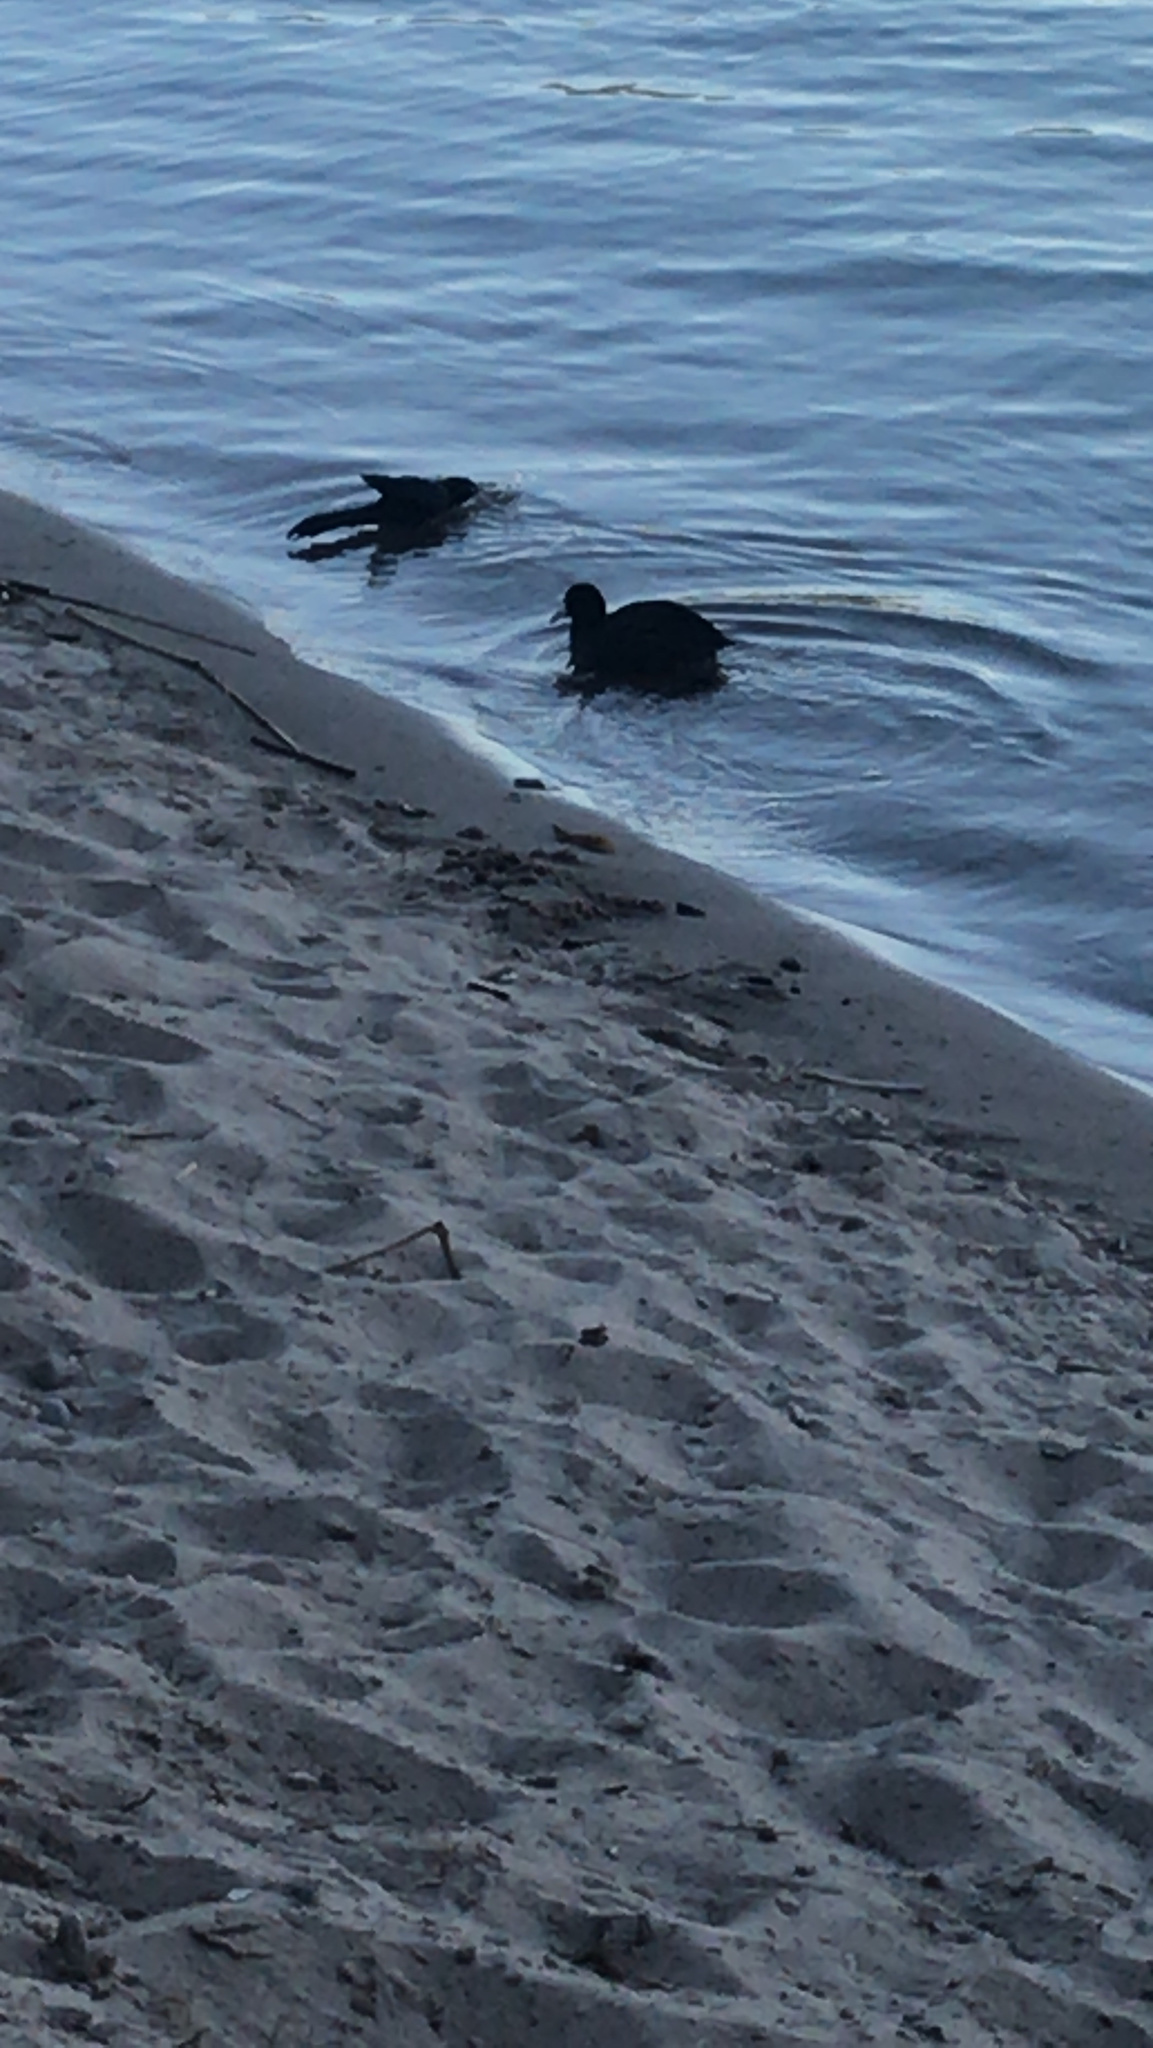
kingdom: Animalia
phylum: Chordata
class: Aves
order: Gruiformes
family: Rallidae
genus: Fulica
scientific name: Fulica americana
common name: American coot
